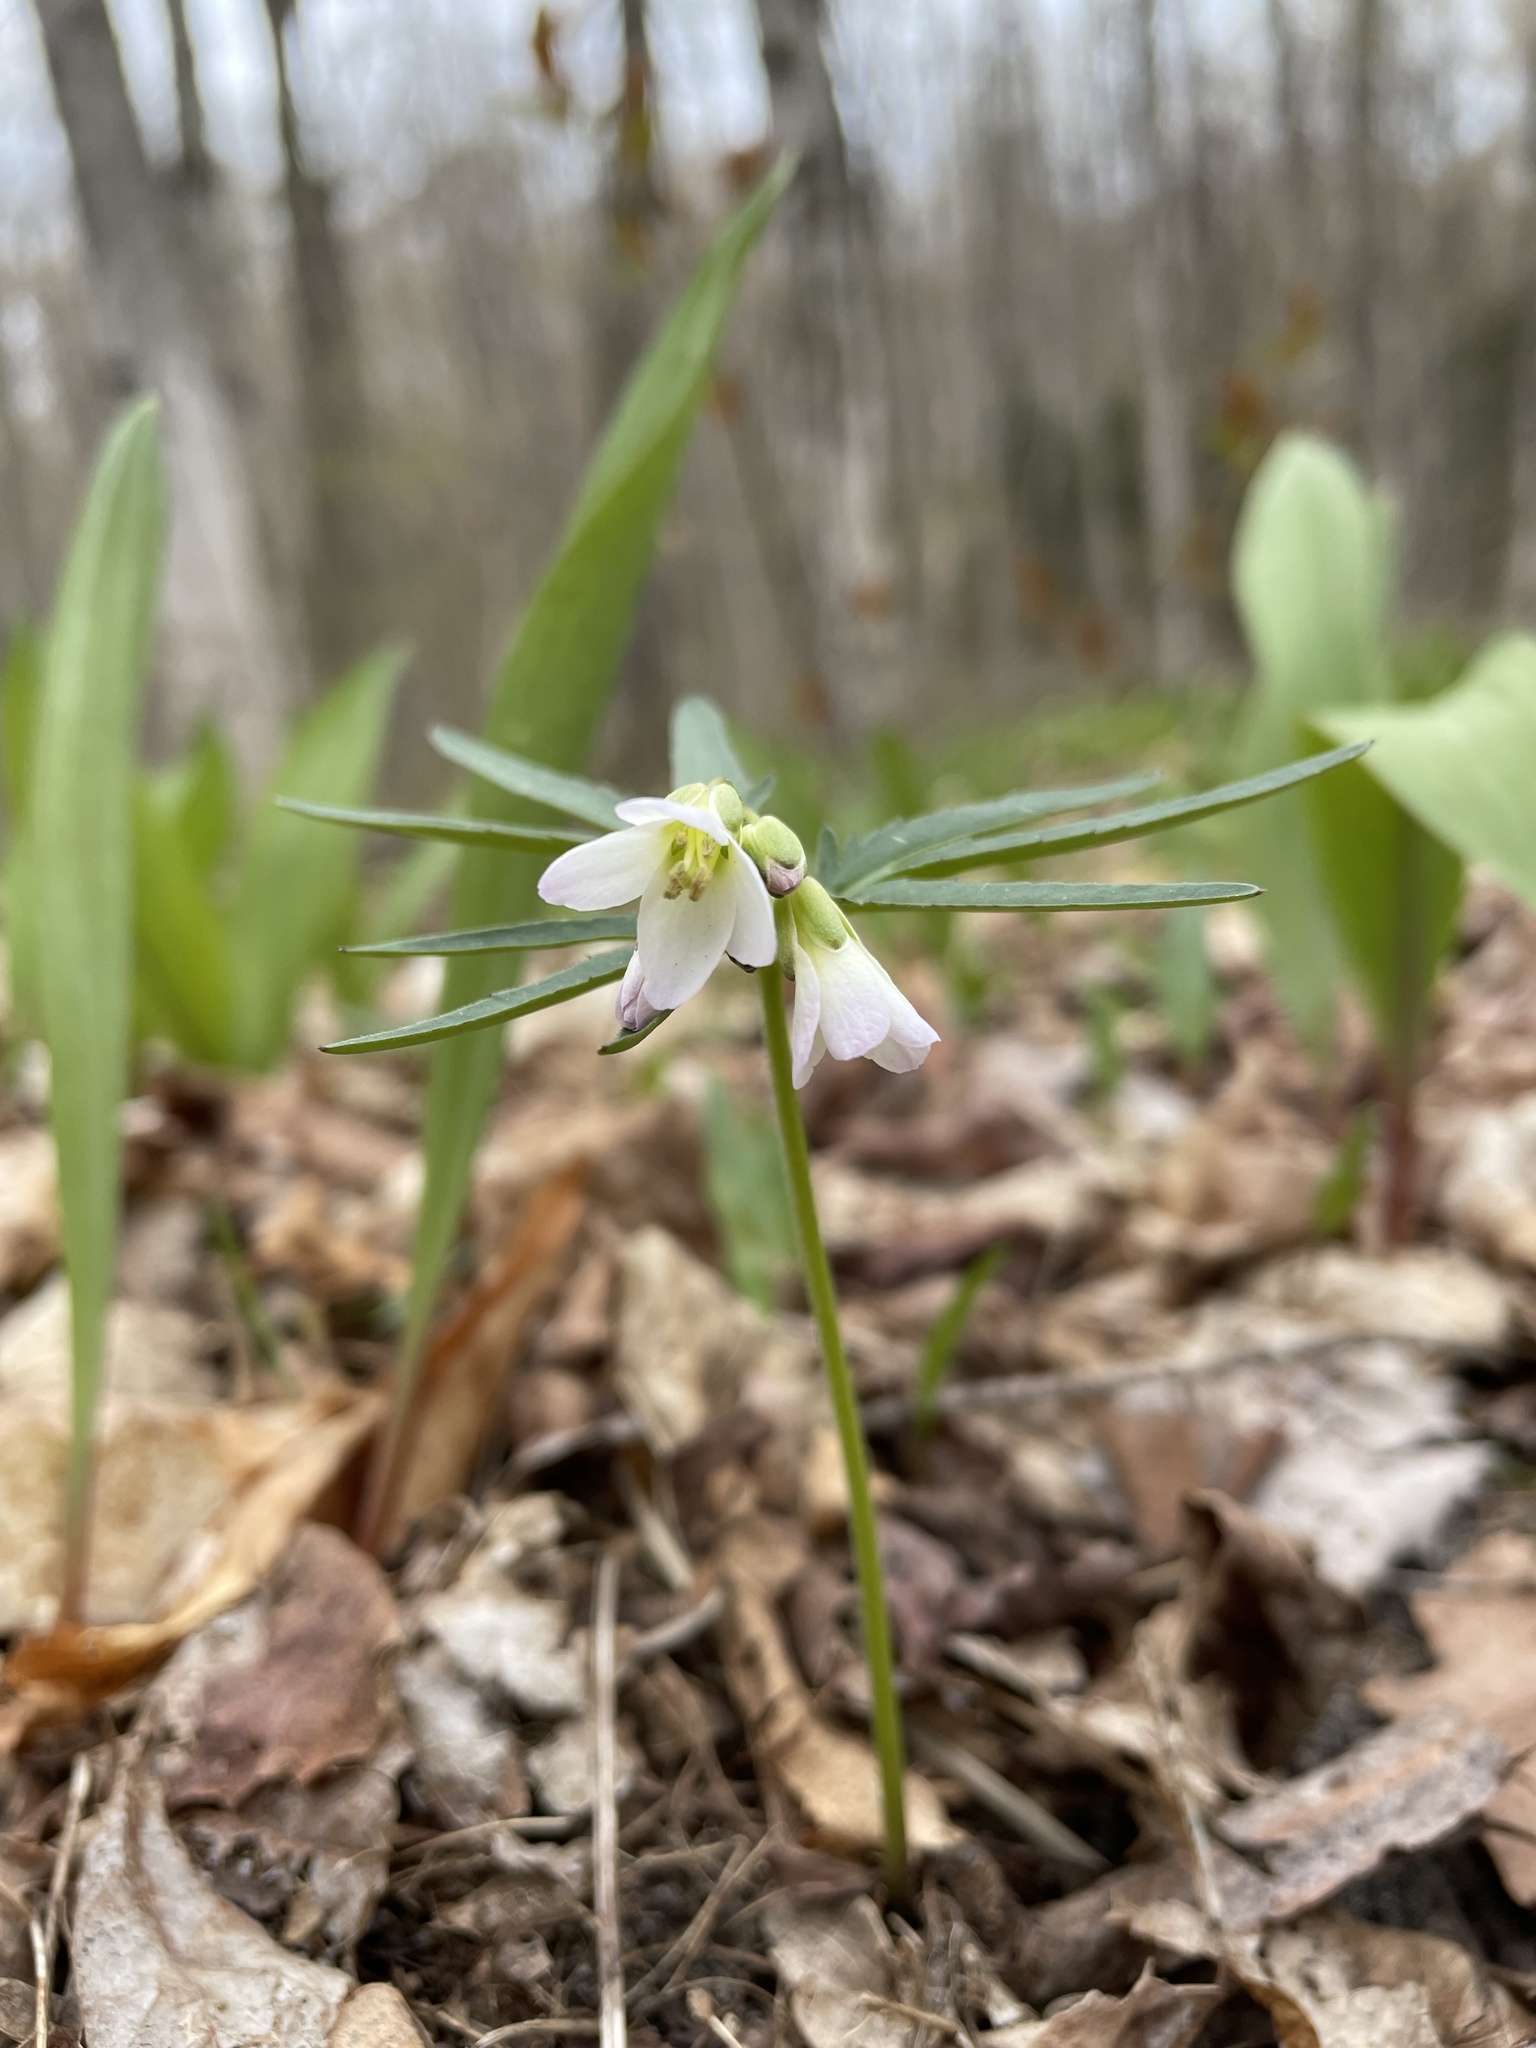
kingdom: Plantae
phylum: Tracheophyta
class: Magnoliopsida
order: Brassicales
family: Brassicaceae
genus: Cardamine
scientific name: Cardamine concatenata
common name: Cut-leaf toothcup
